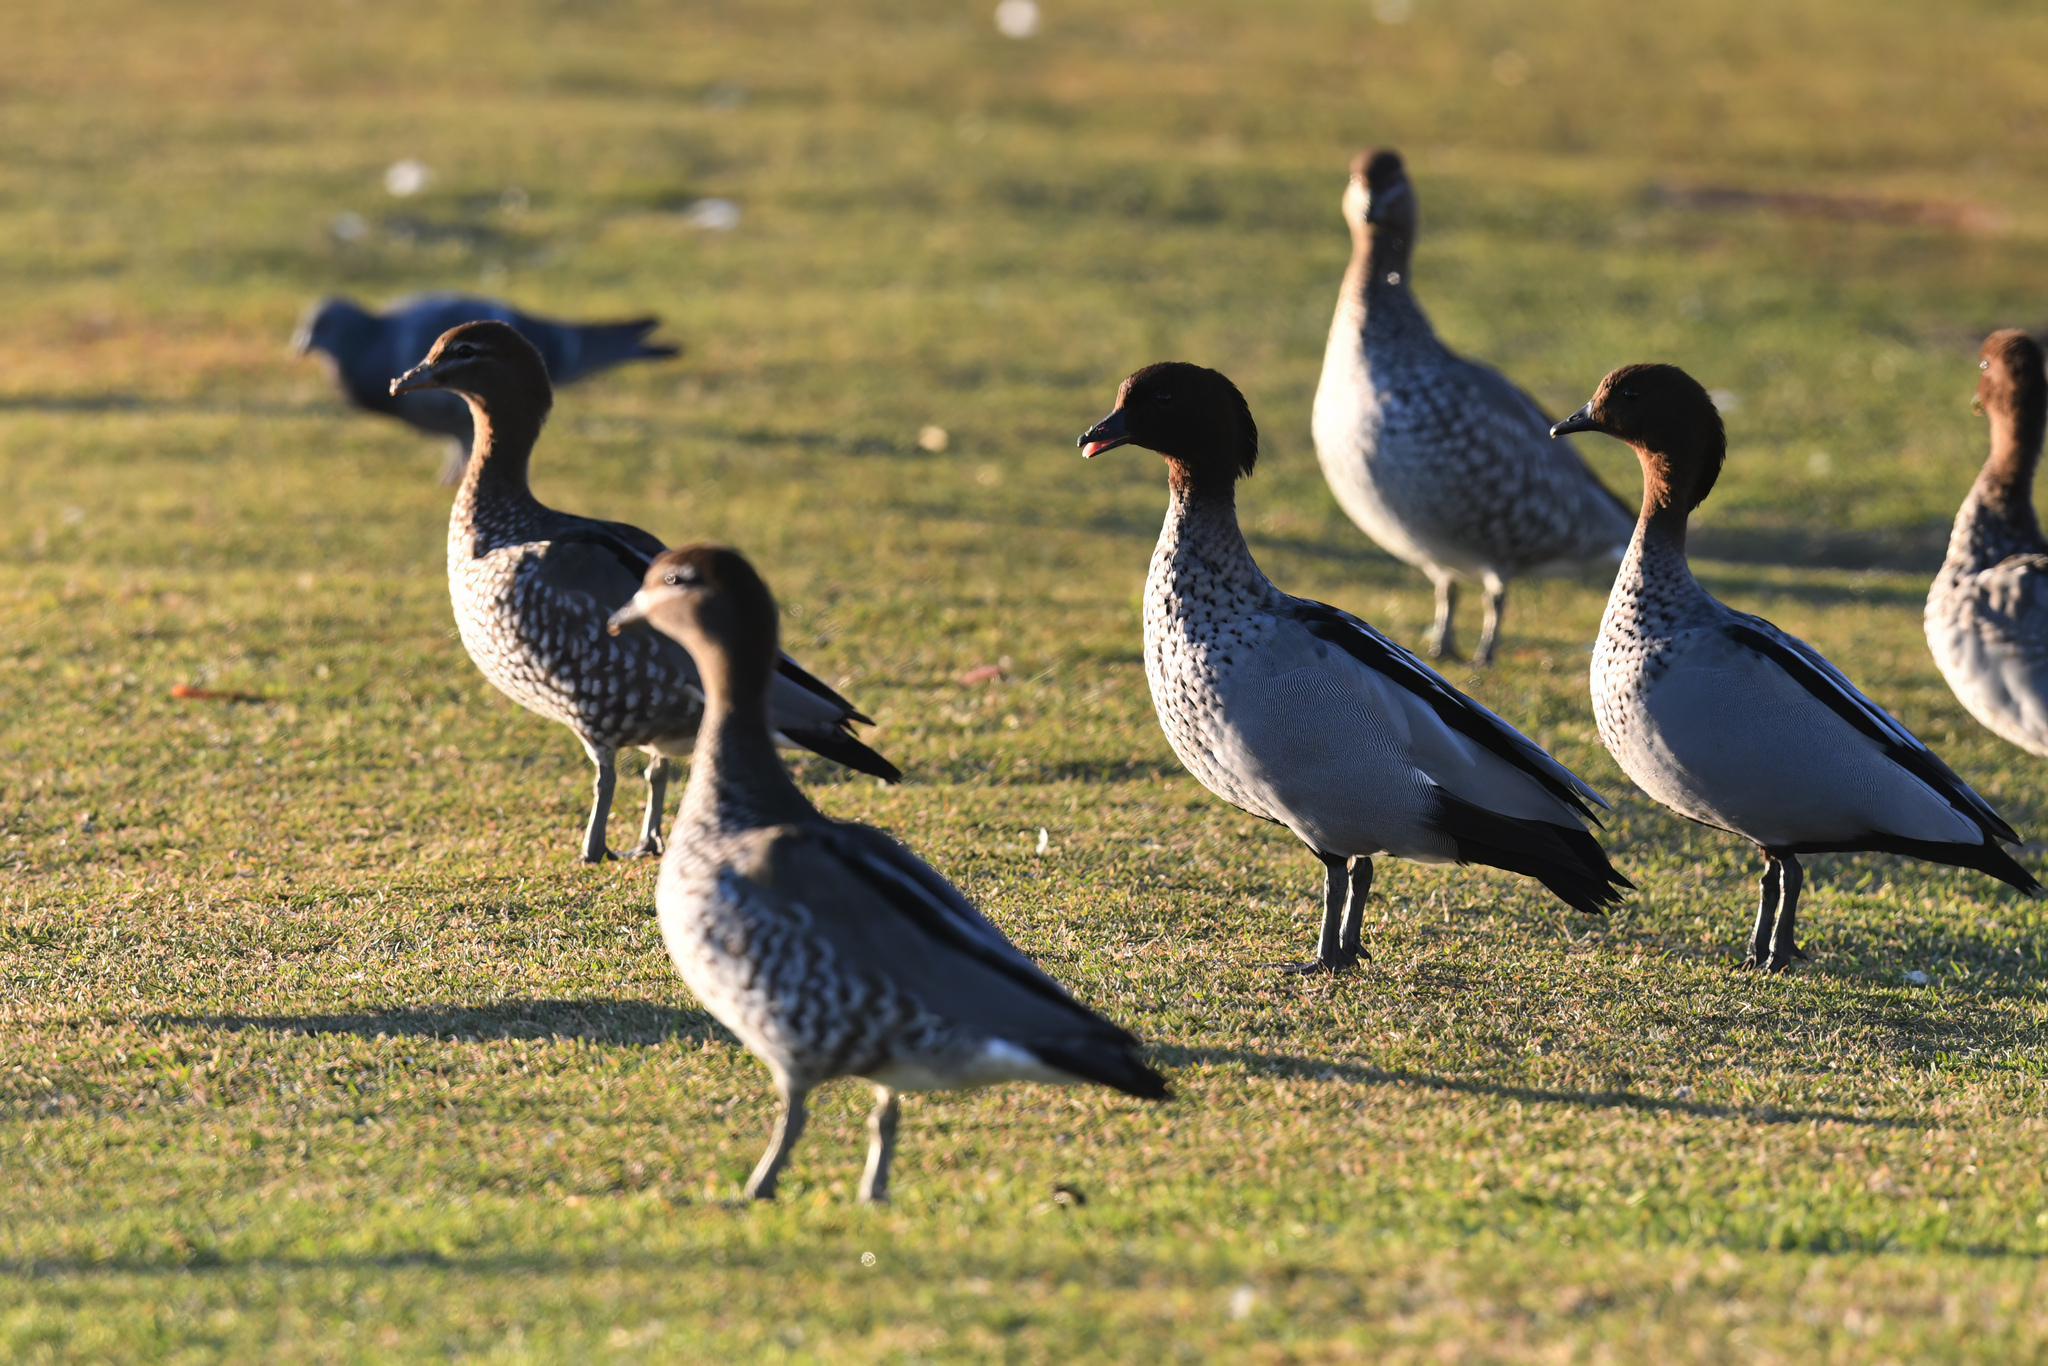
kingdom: Animalia
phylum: Chordata
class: Aves
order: Anseriformes
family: Anatidae
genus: Chenonetta
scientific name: Chenonetta jubata
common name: Maned duck
